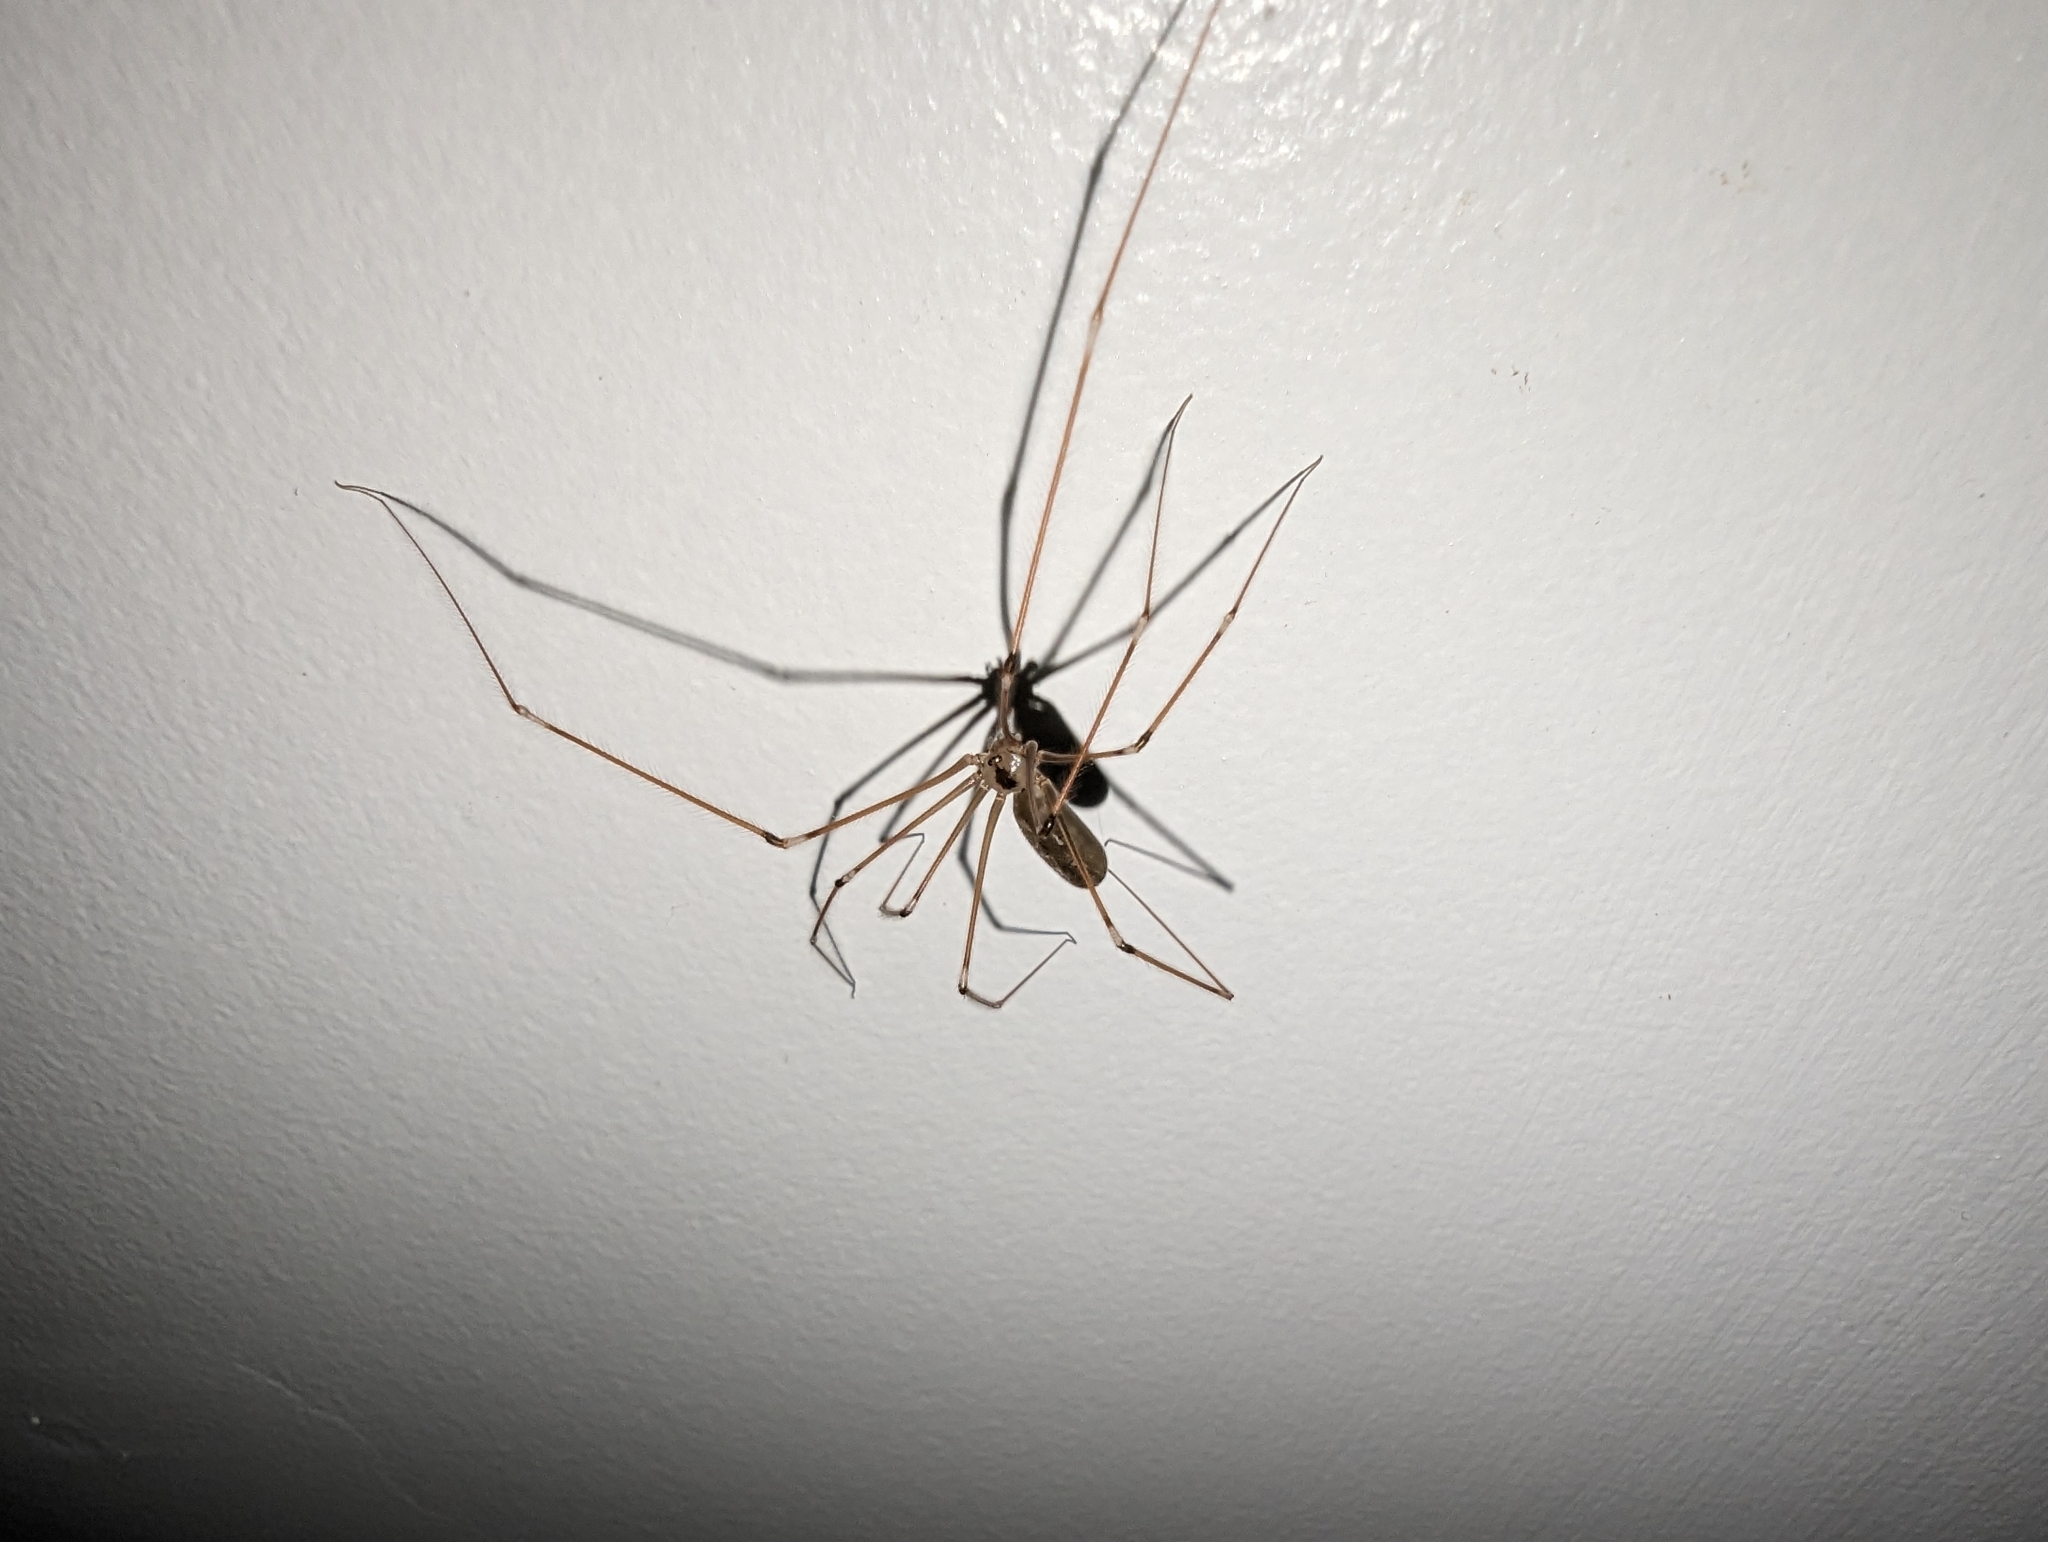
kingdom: Animalia
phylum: Arthropoda
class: Arachnida
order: Araneae
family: Pholcidae
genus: Pholcus
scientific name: Pholcus phalangioides
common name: Longbodied cellar spider
